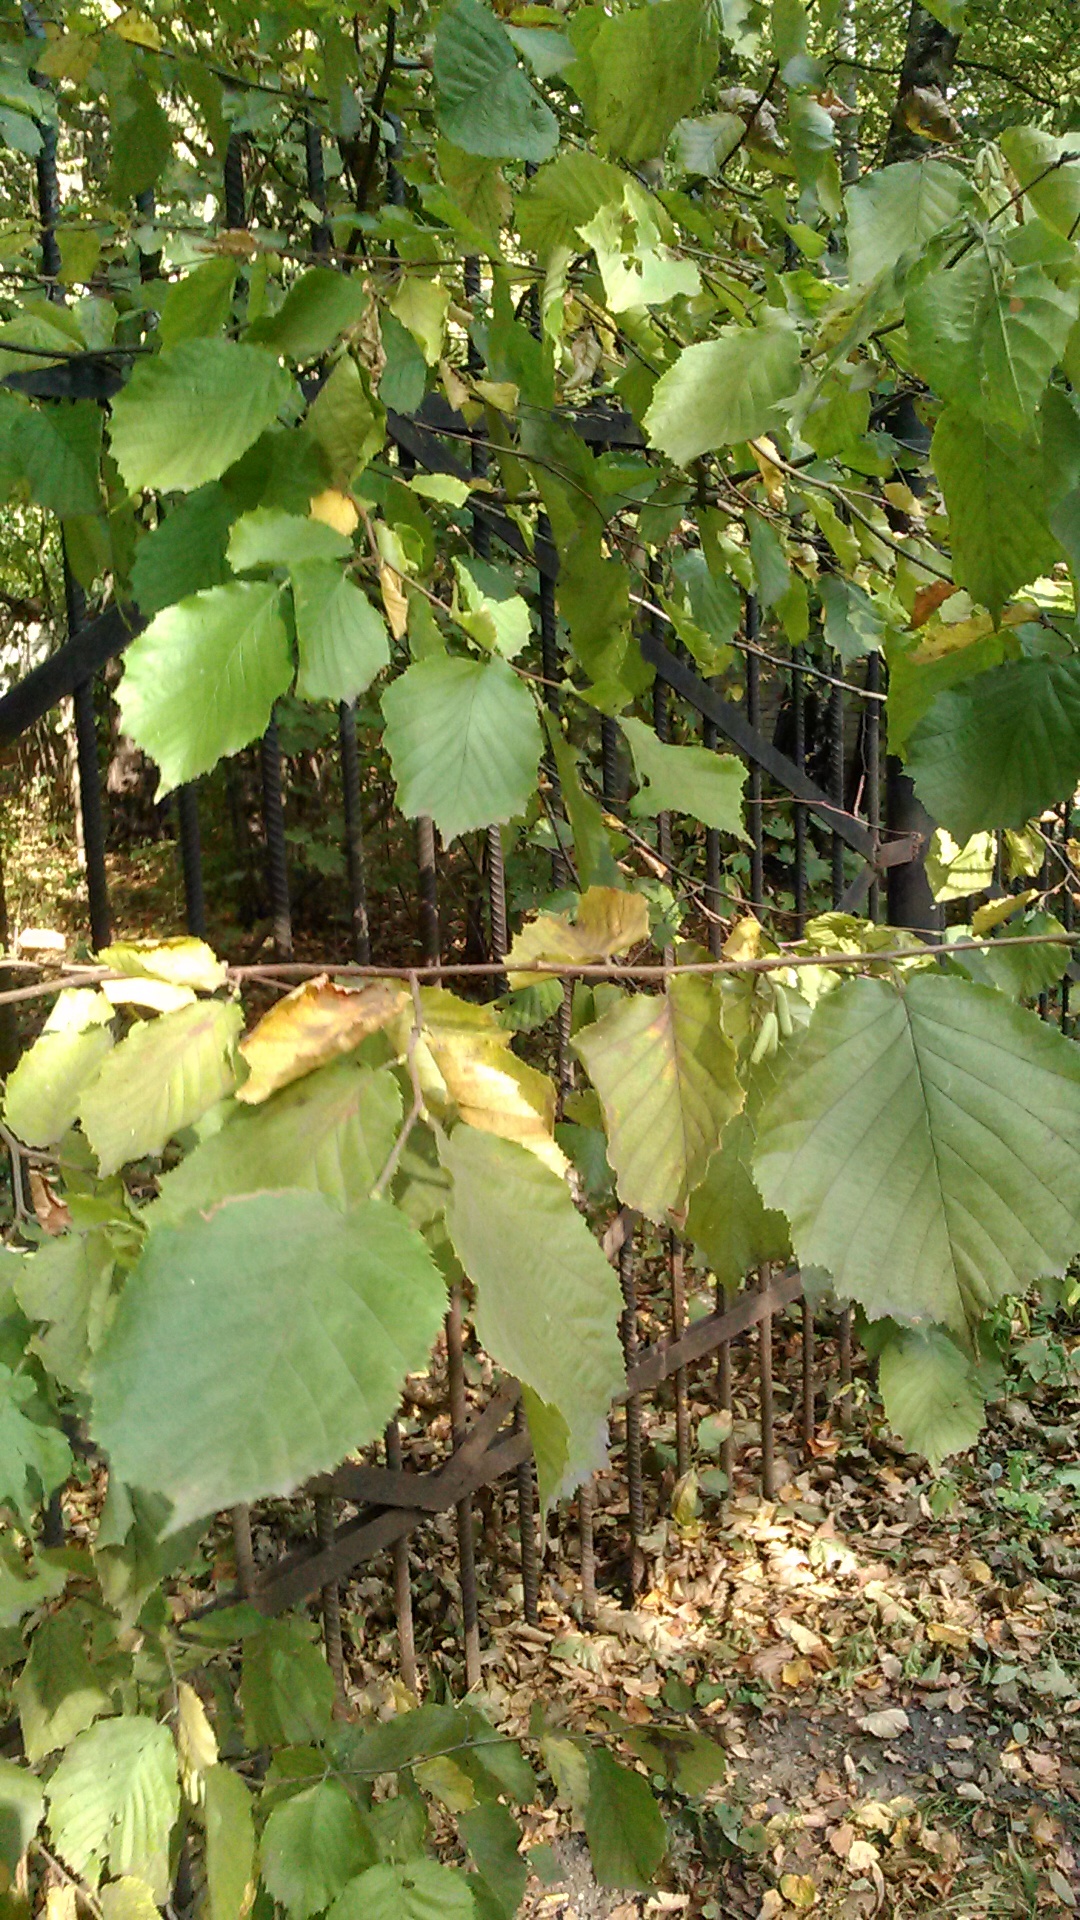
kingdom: Plantae
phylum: Tracheophyta
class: Magnoliopsida
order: Fagales
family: Betulaceae
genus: Corylus
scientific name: Corylus avellana
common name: European hazel
